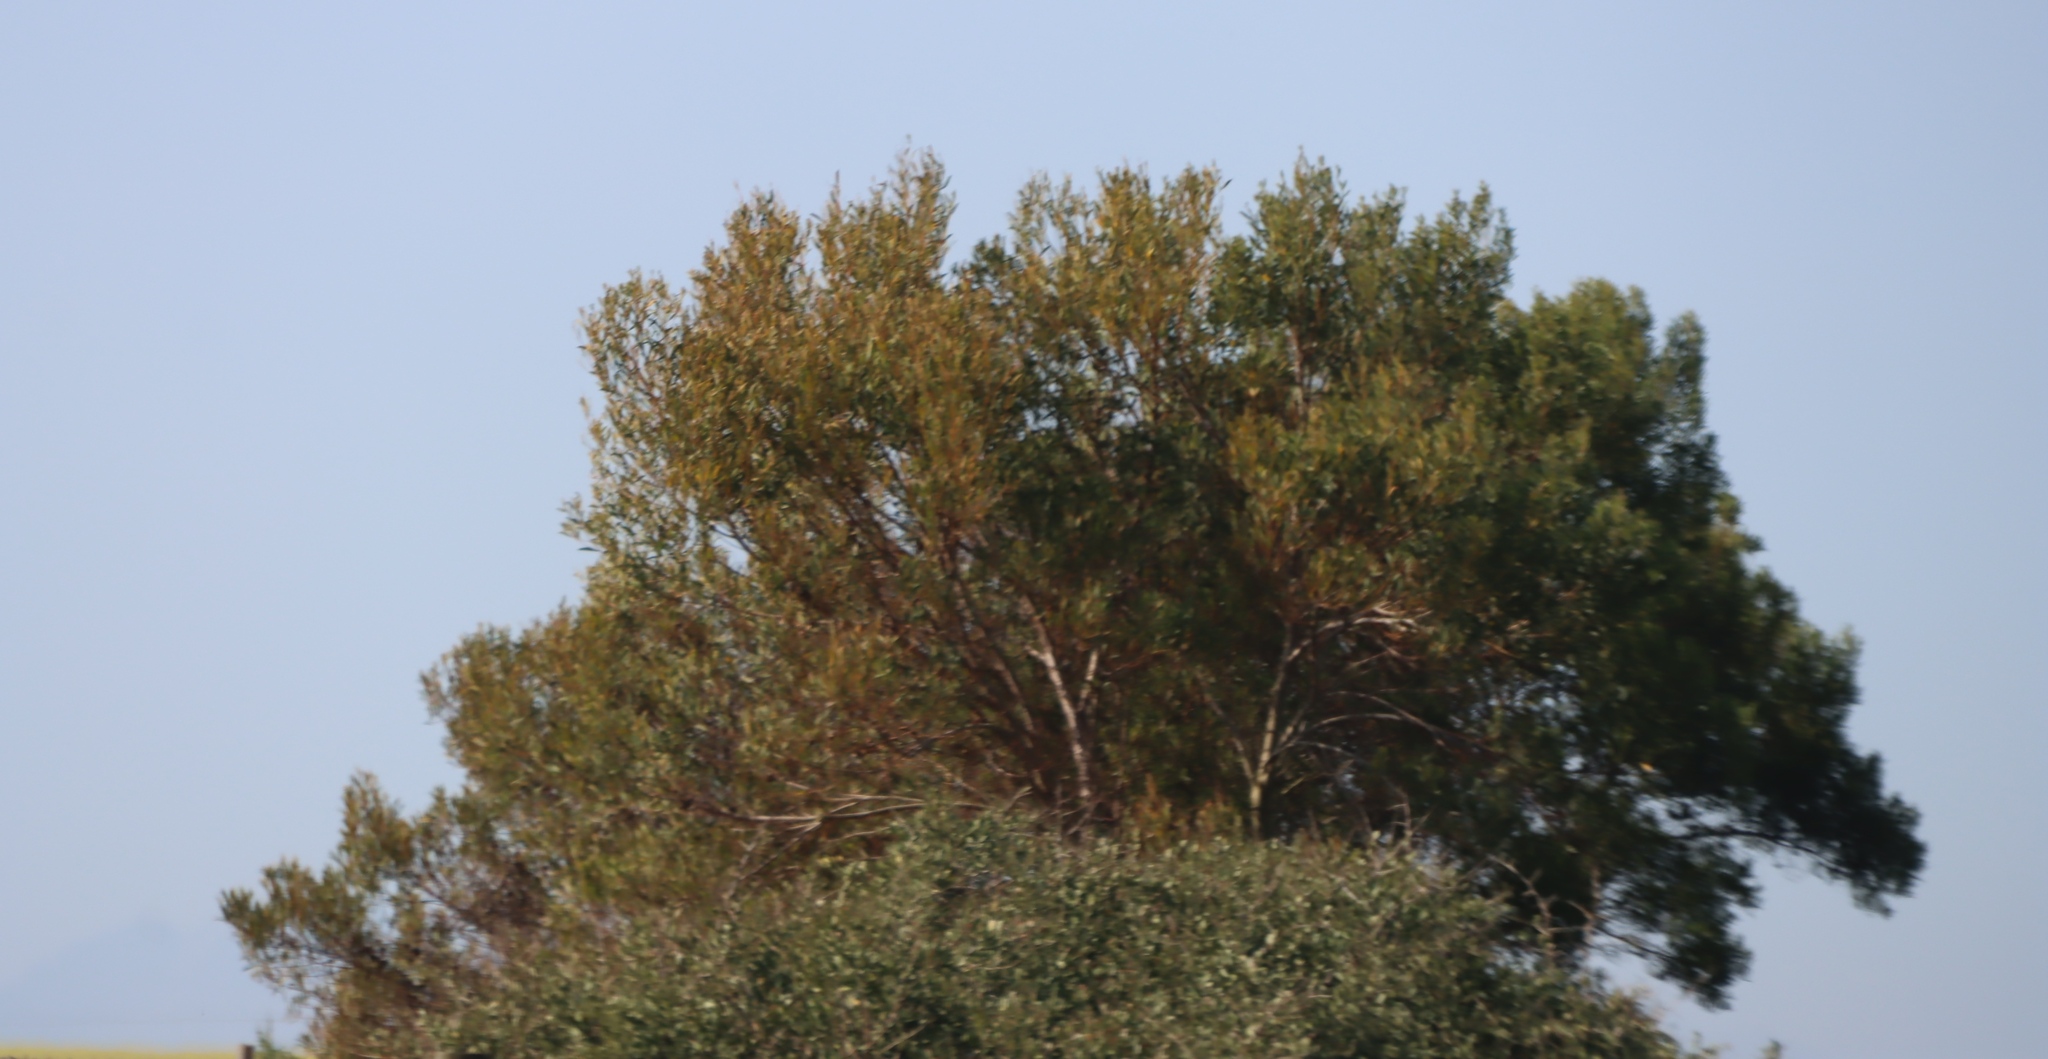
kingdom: Plantae
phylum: Tracheophyta
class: Magnoliopsida
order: Fabales
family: Fabaceae
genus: Acacia
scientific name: Acacia cyclops
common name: Coastal wattle
